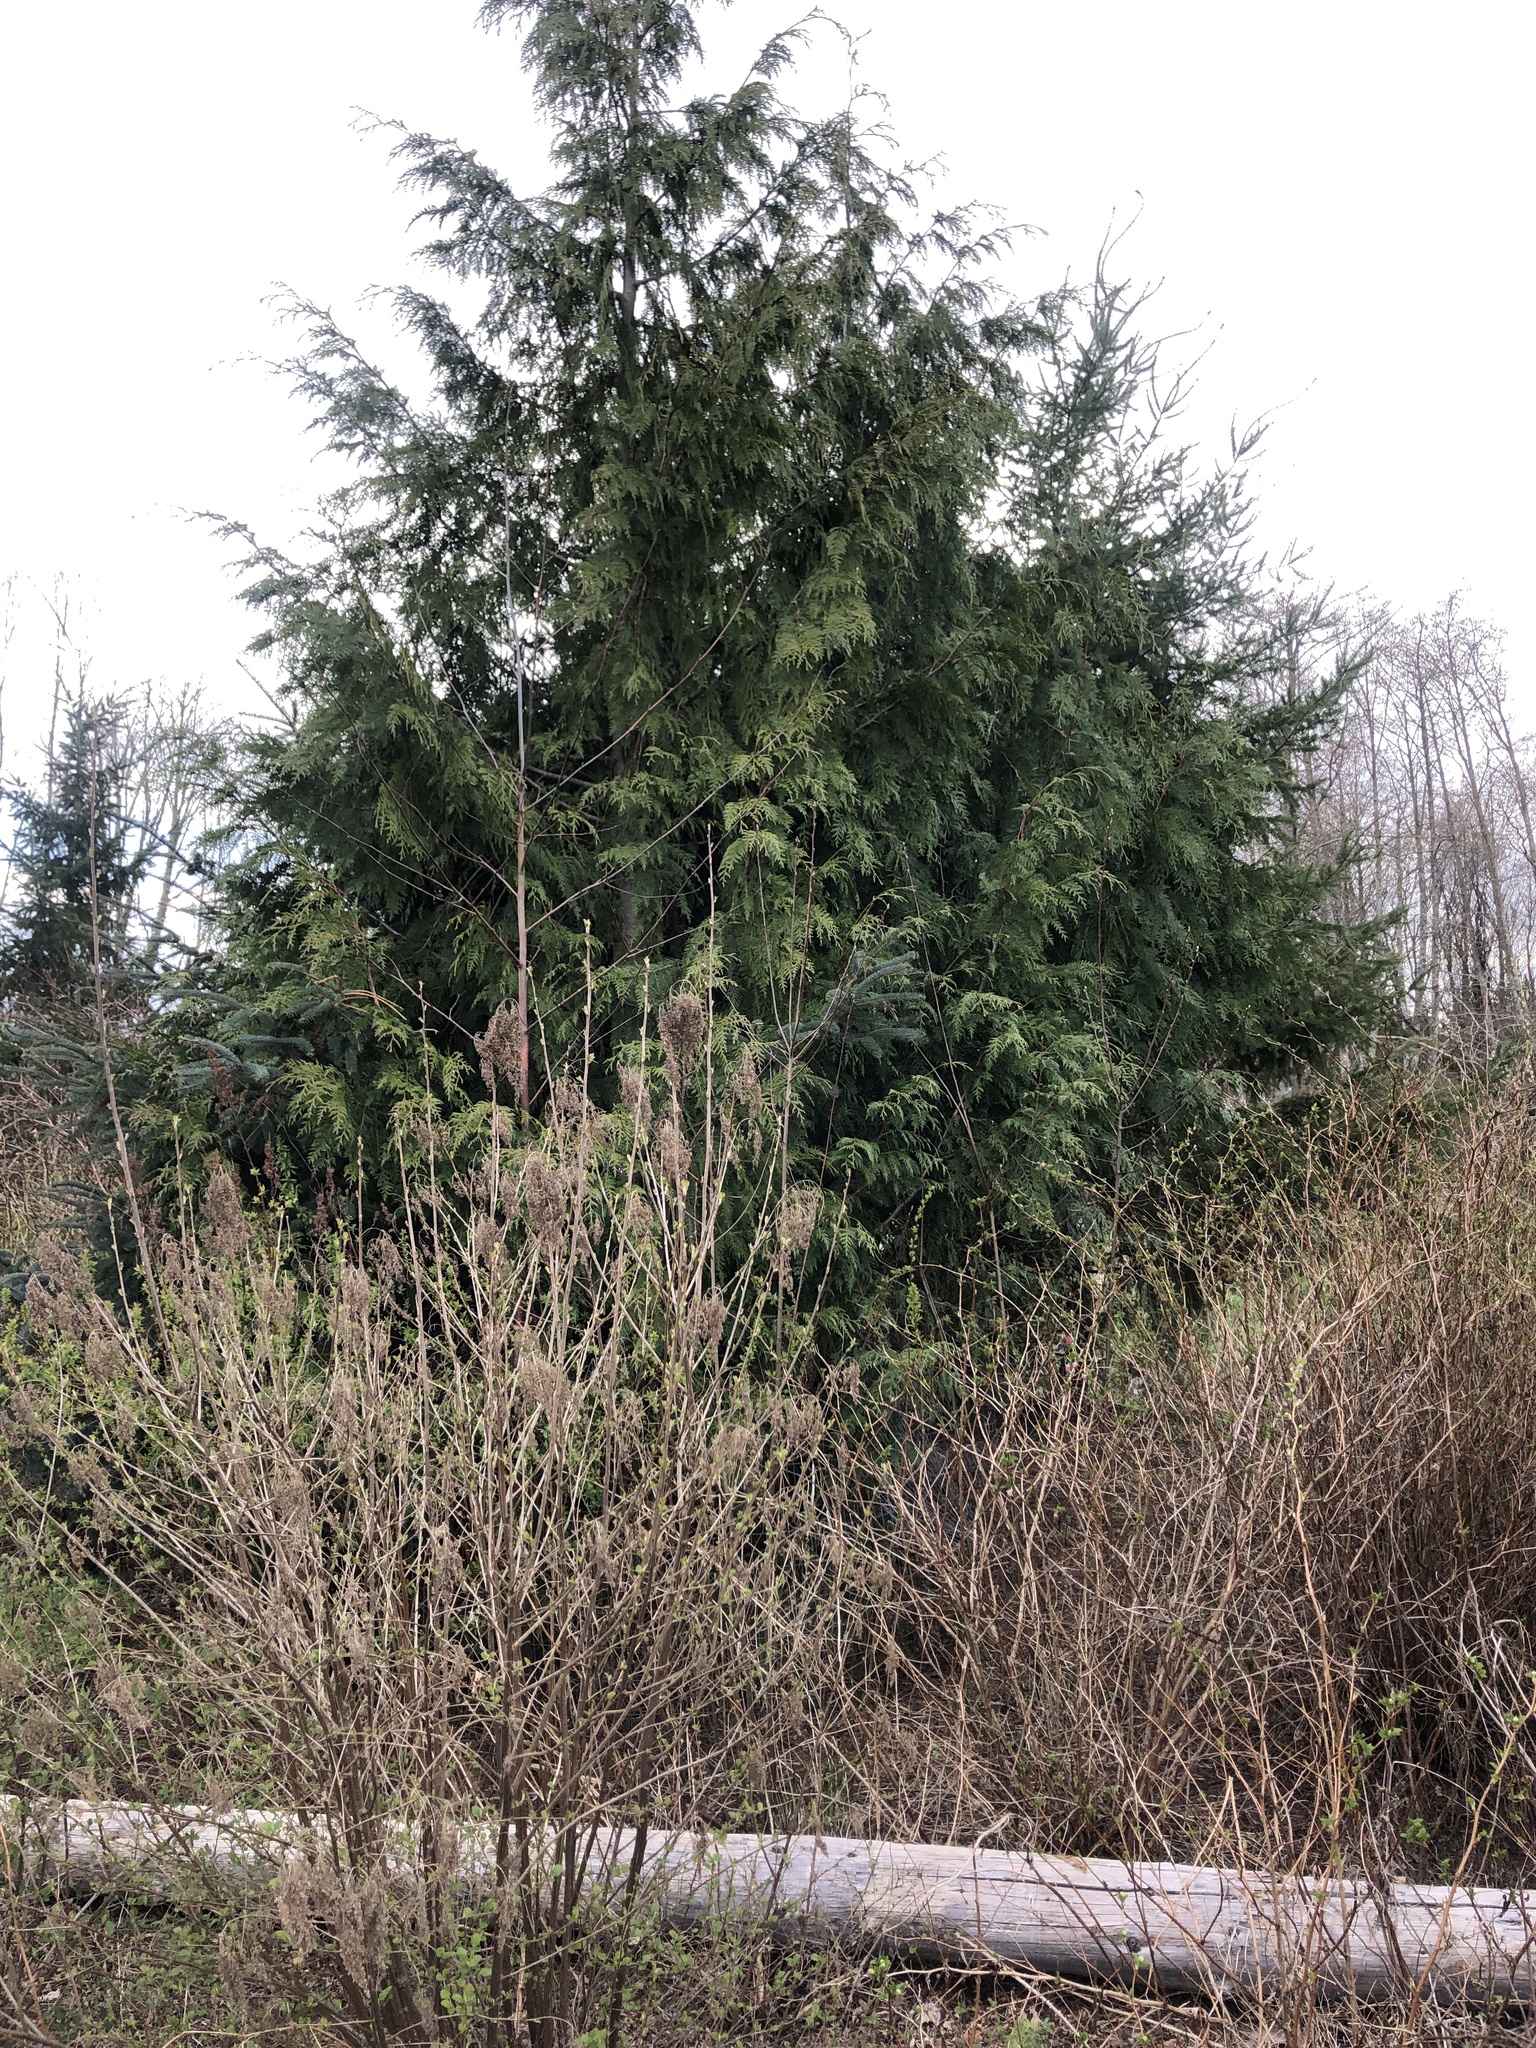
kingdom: Plantae
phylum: Tracheophyta
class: Pinopsida
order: Pinales
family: Cupressaceae
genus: Thuja
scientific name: Thuja plicata
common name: Western red-cedar
